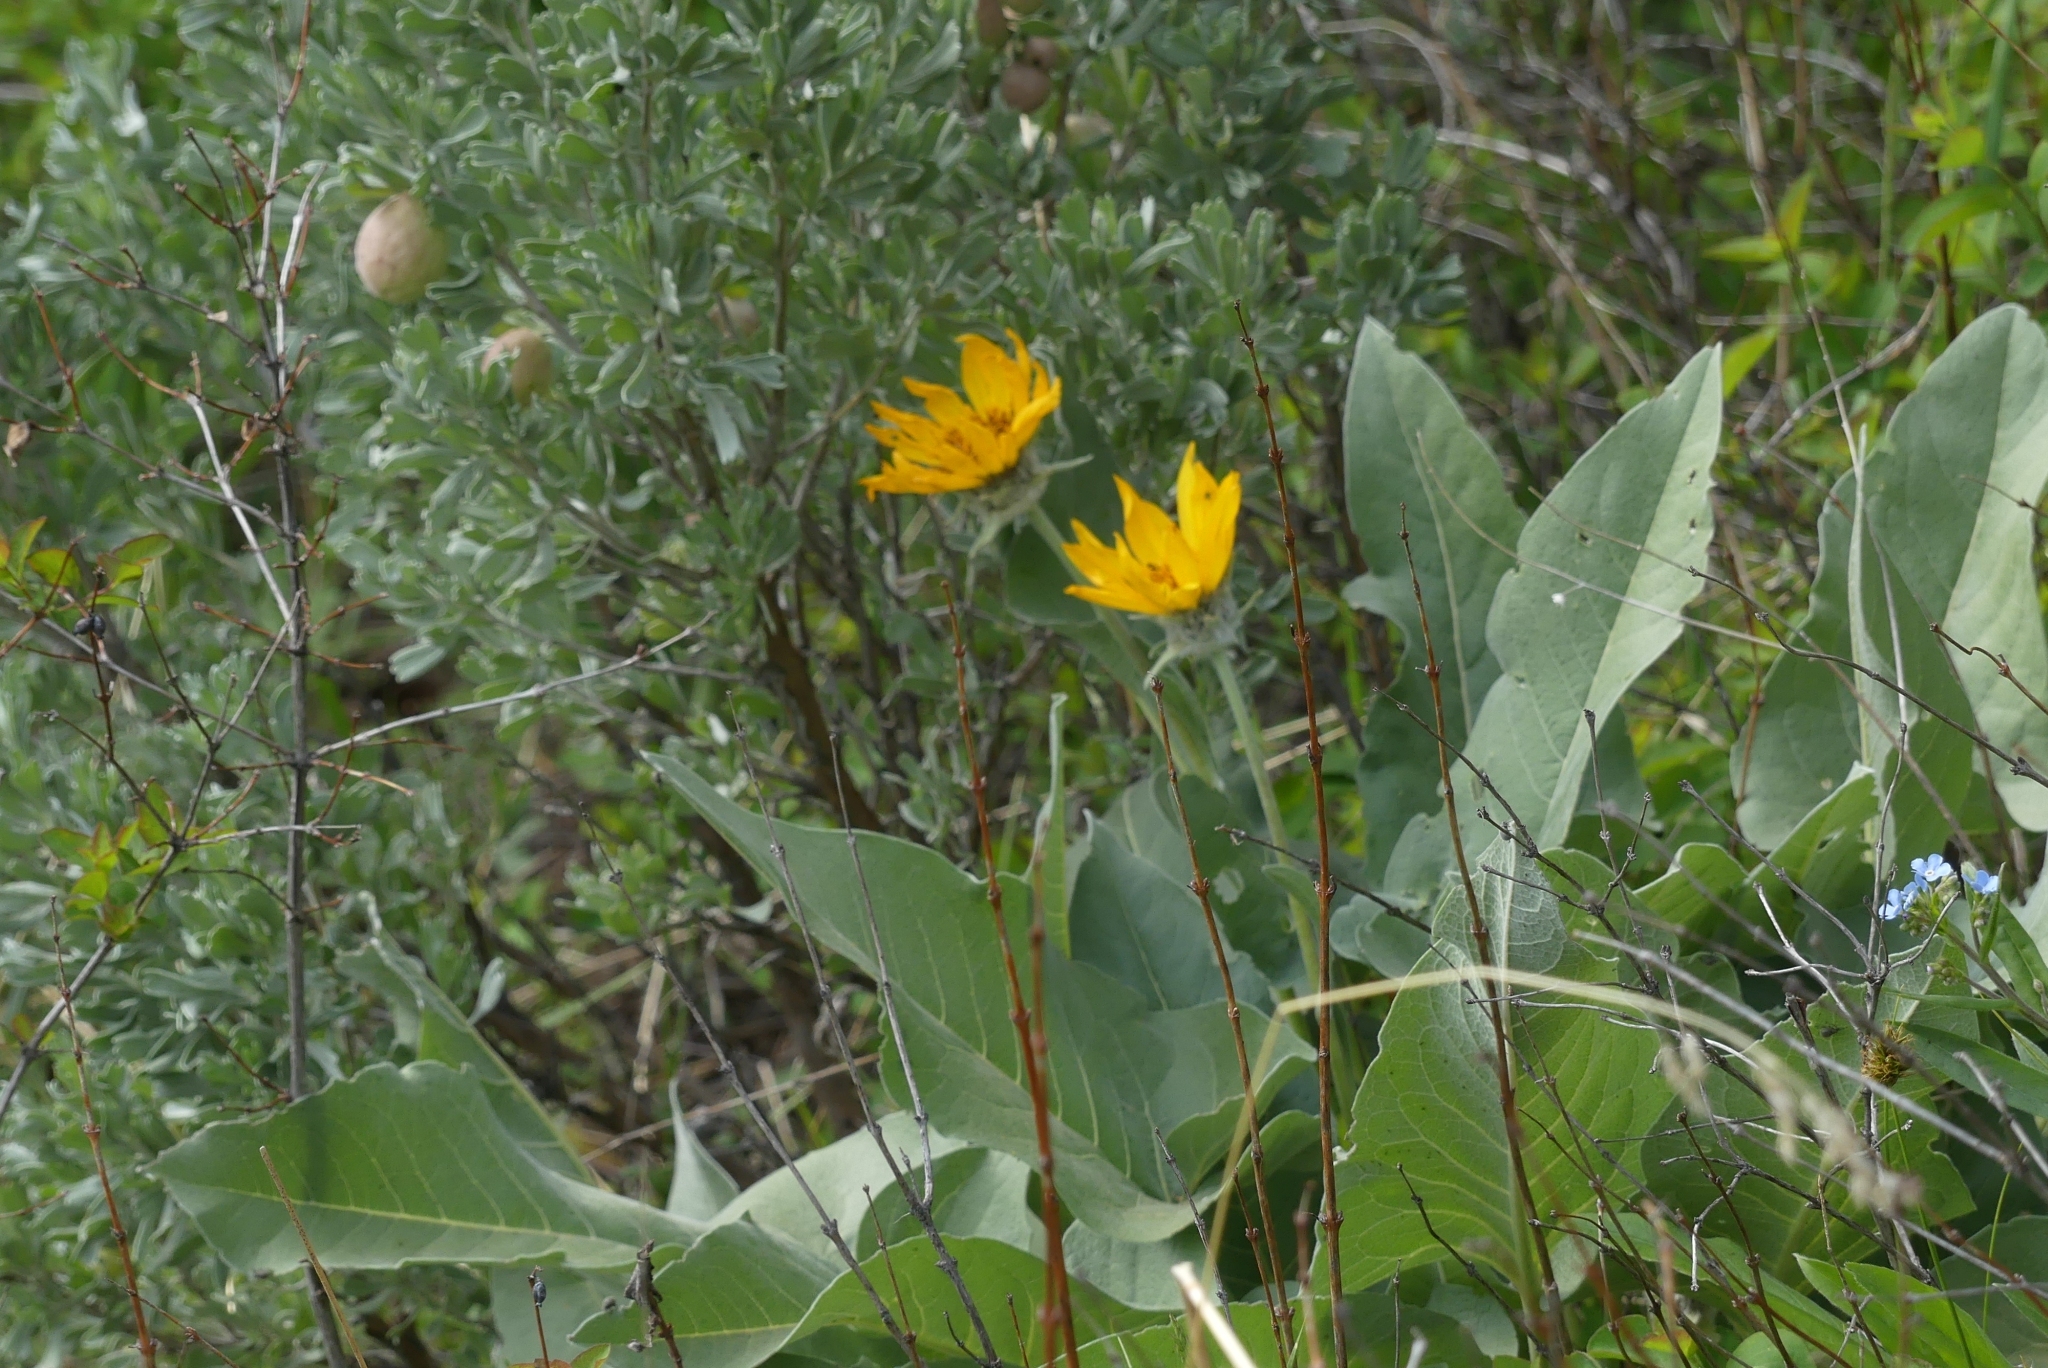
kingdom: Plantae
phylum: Tracheophyta
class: Magnoliopsida
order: Asterales
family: Asteraceae
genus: Wyethia
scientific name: Wyethia sagittata
